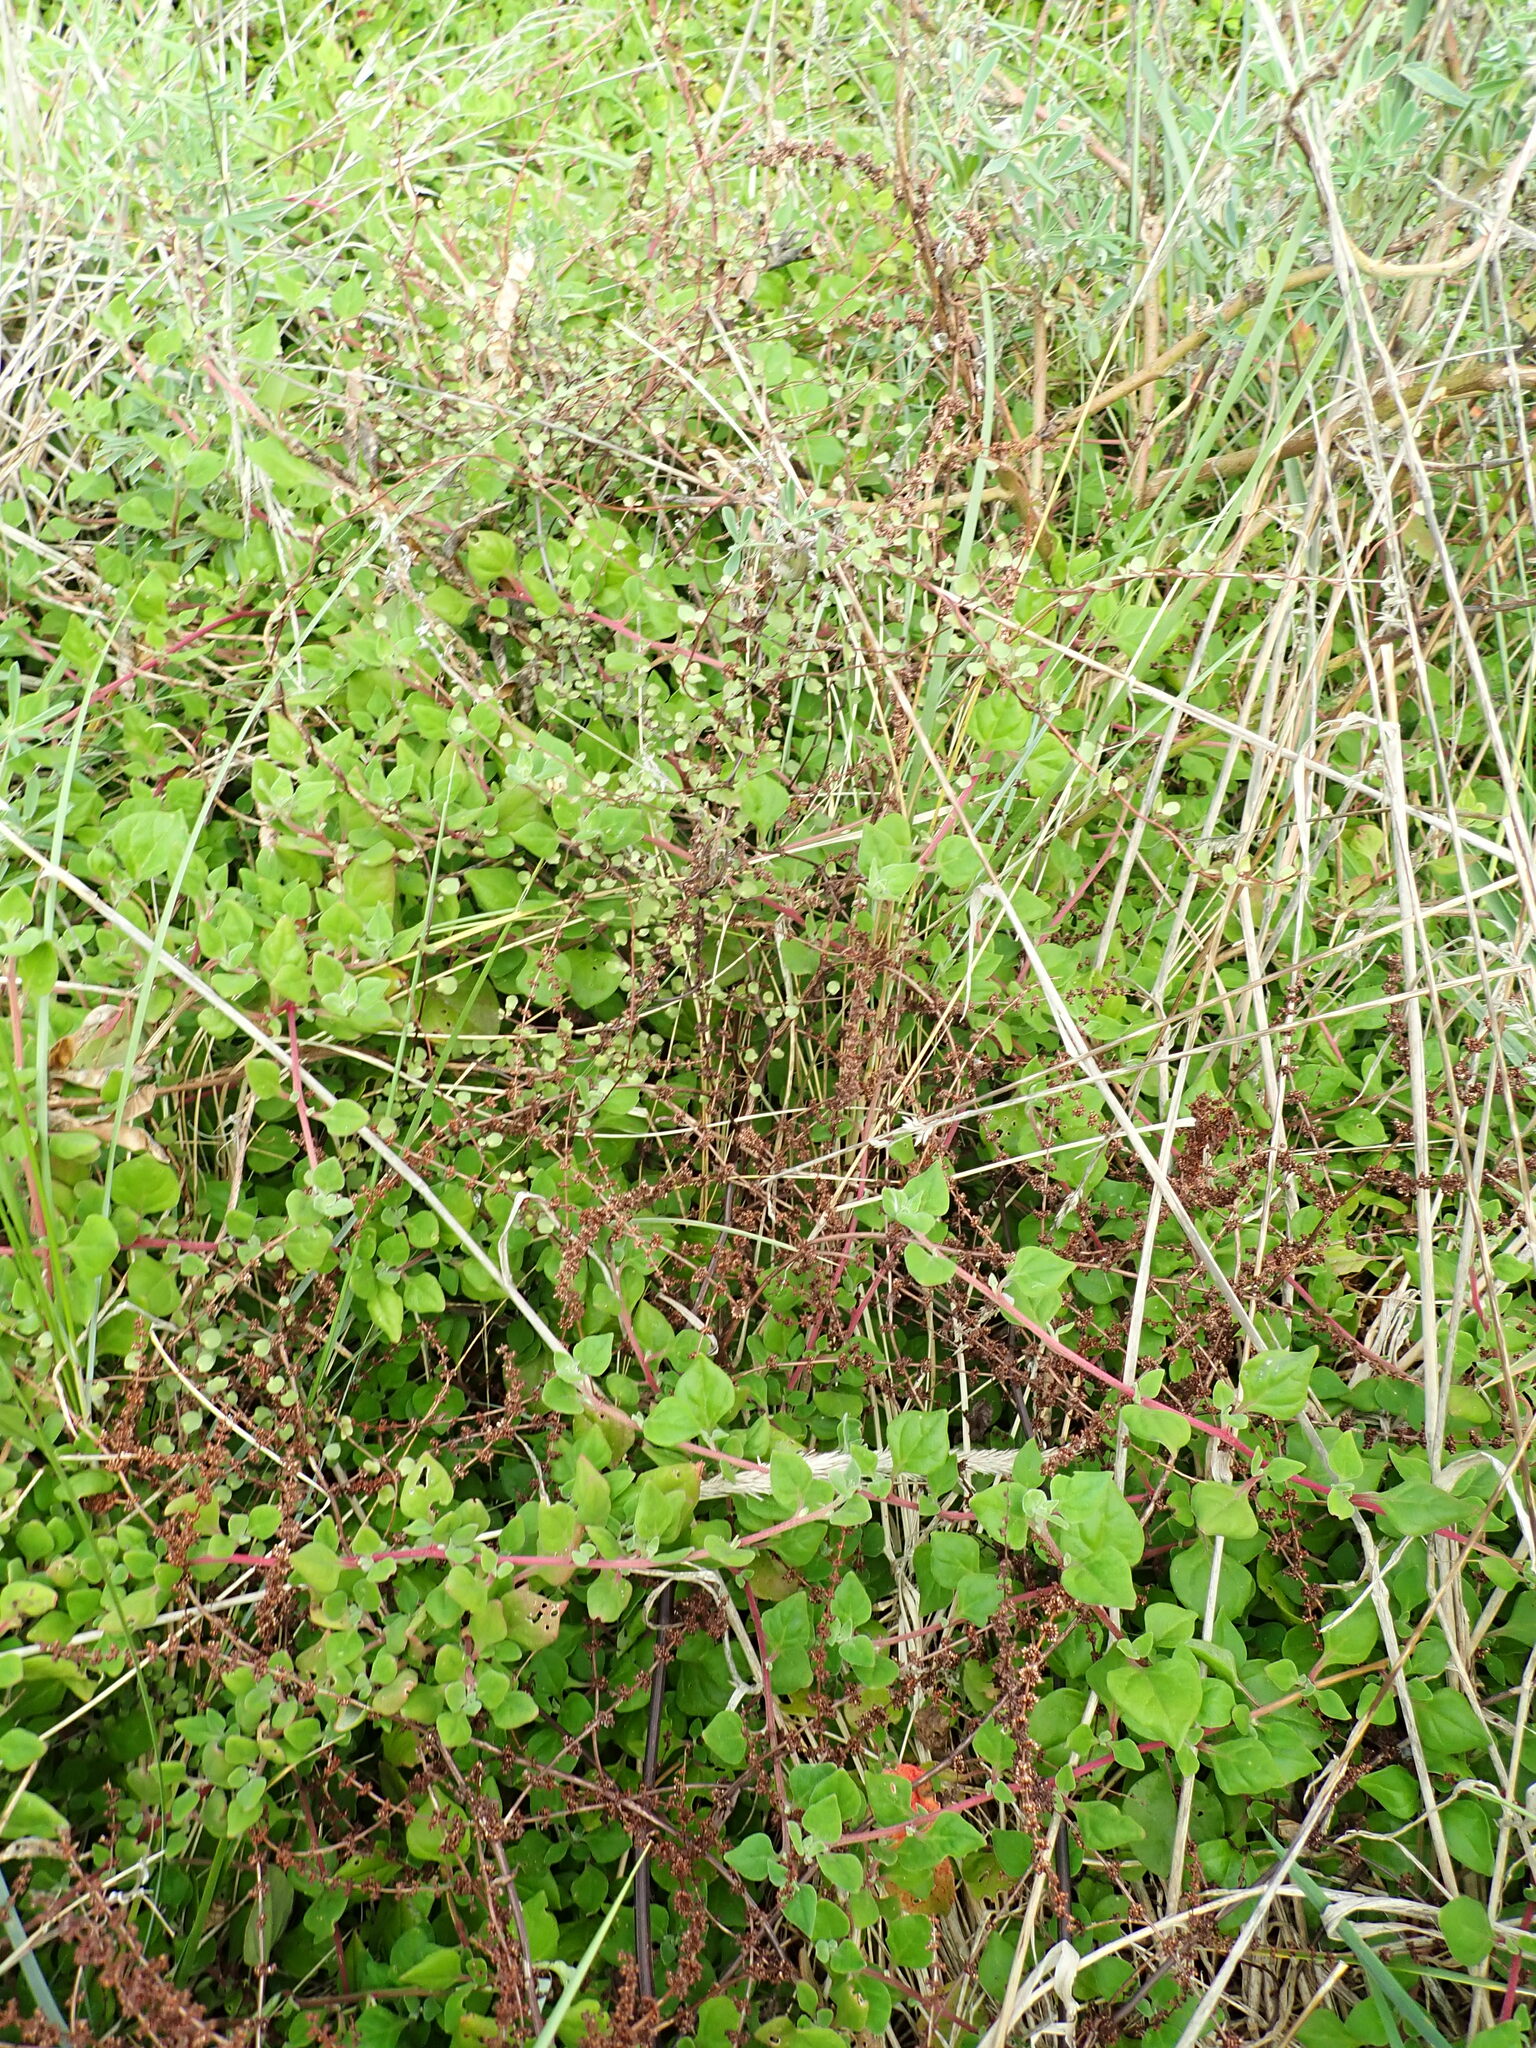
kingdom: Plantae
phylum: Tracheophyta
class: Magnoliopsida
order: Caryophyllales
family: Polygonaceae
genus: Muehlenbeckia
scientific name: Muehlenbeckia complexa
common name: Wireplant
